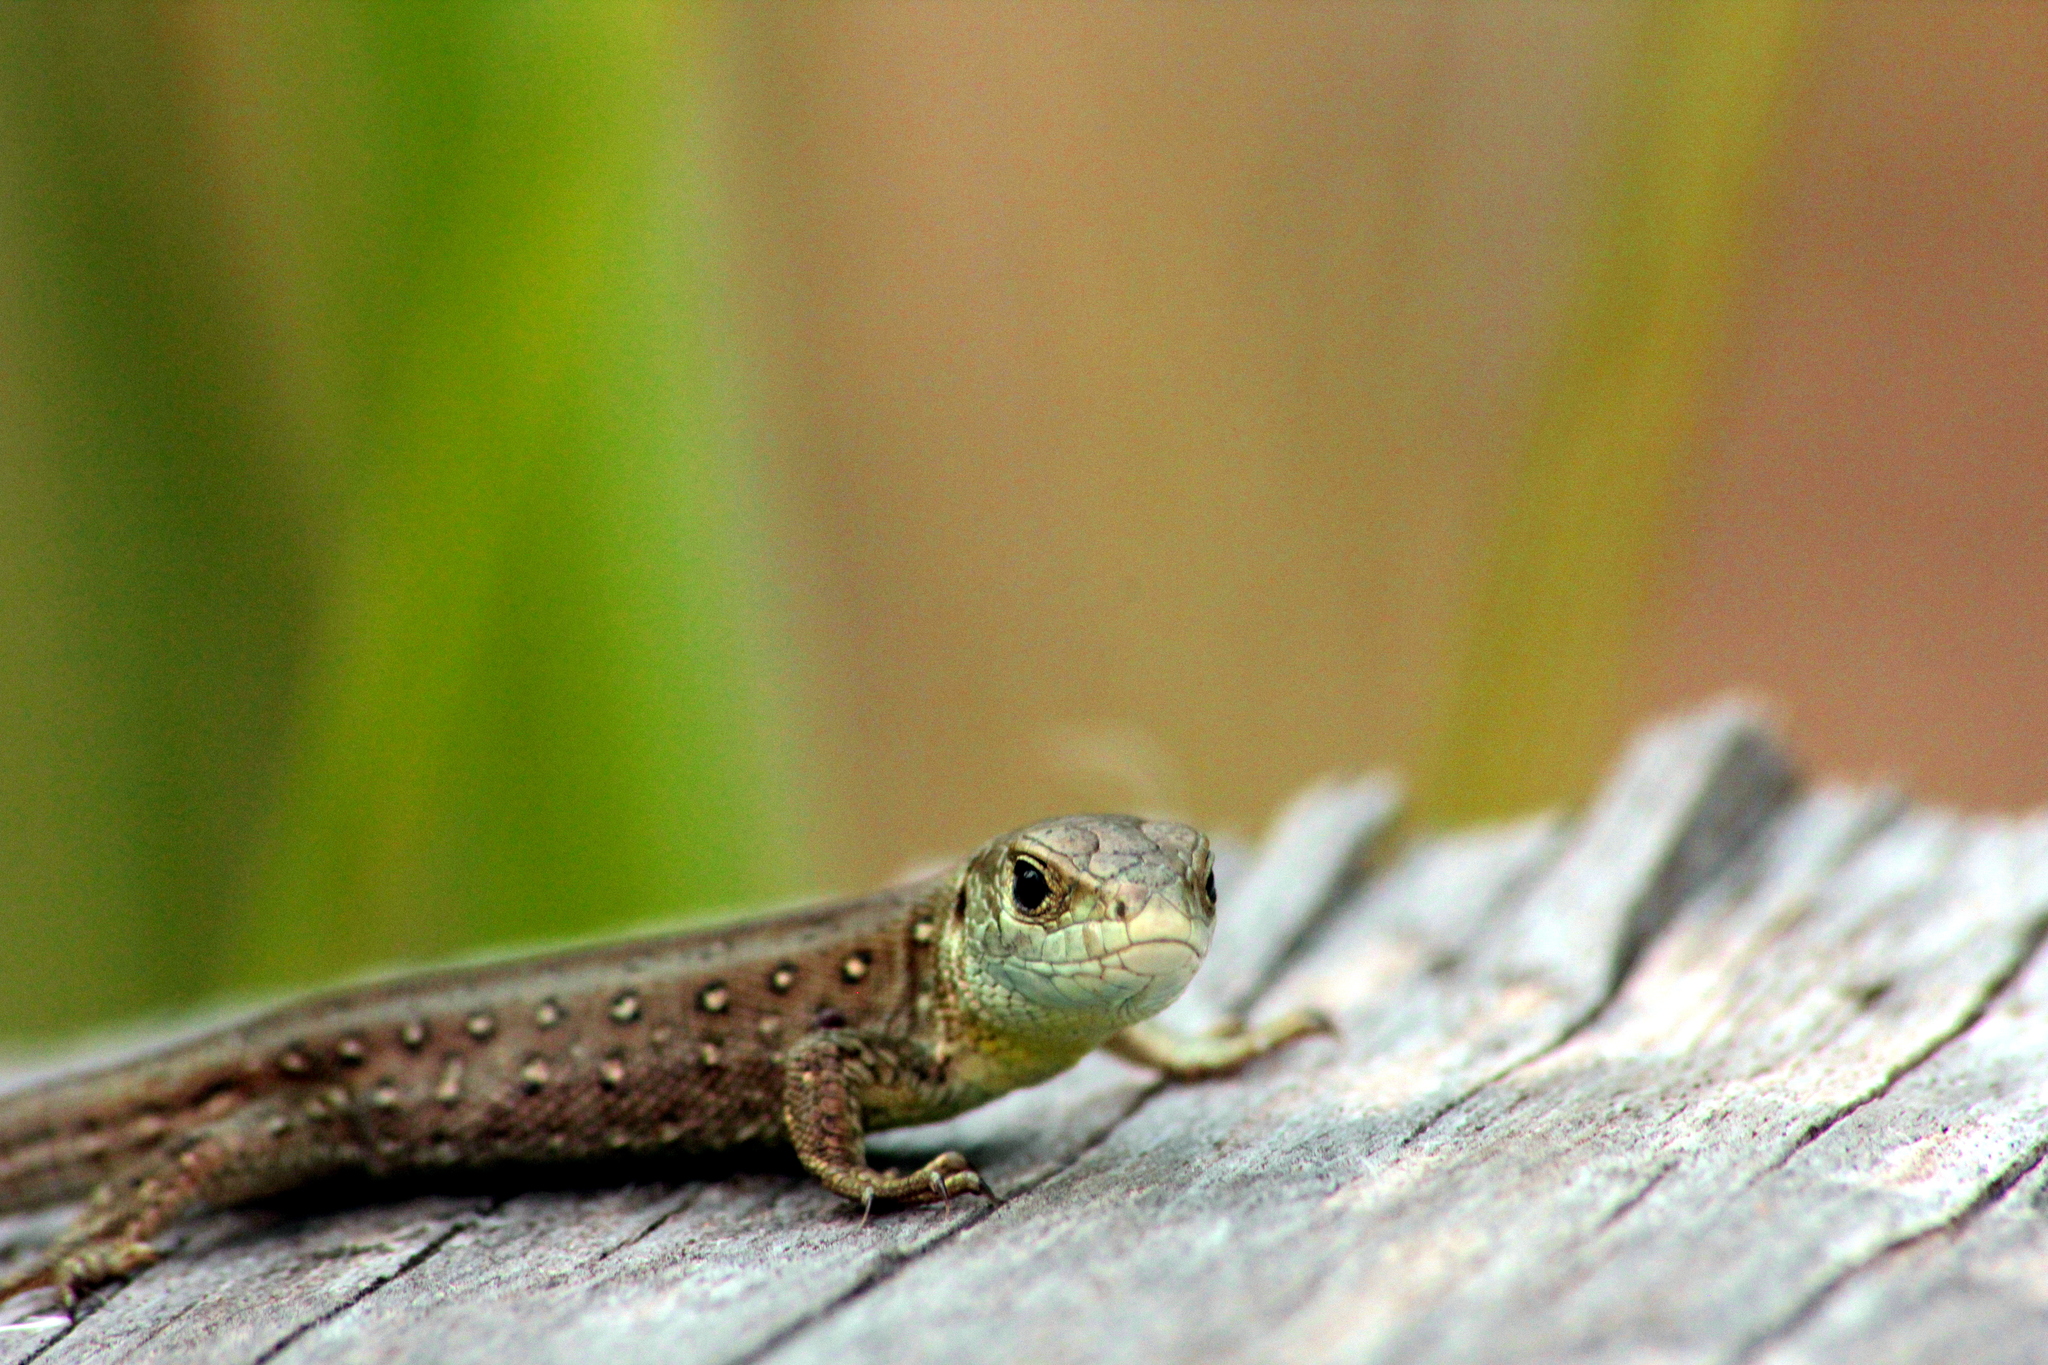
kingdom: Animalia
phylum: Chordata
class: Squamata
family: Lacertidae
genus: Lacerta
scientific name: Lacerta agilis
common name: Sand lizard
